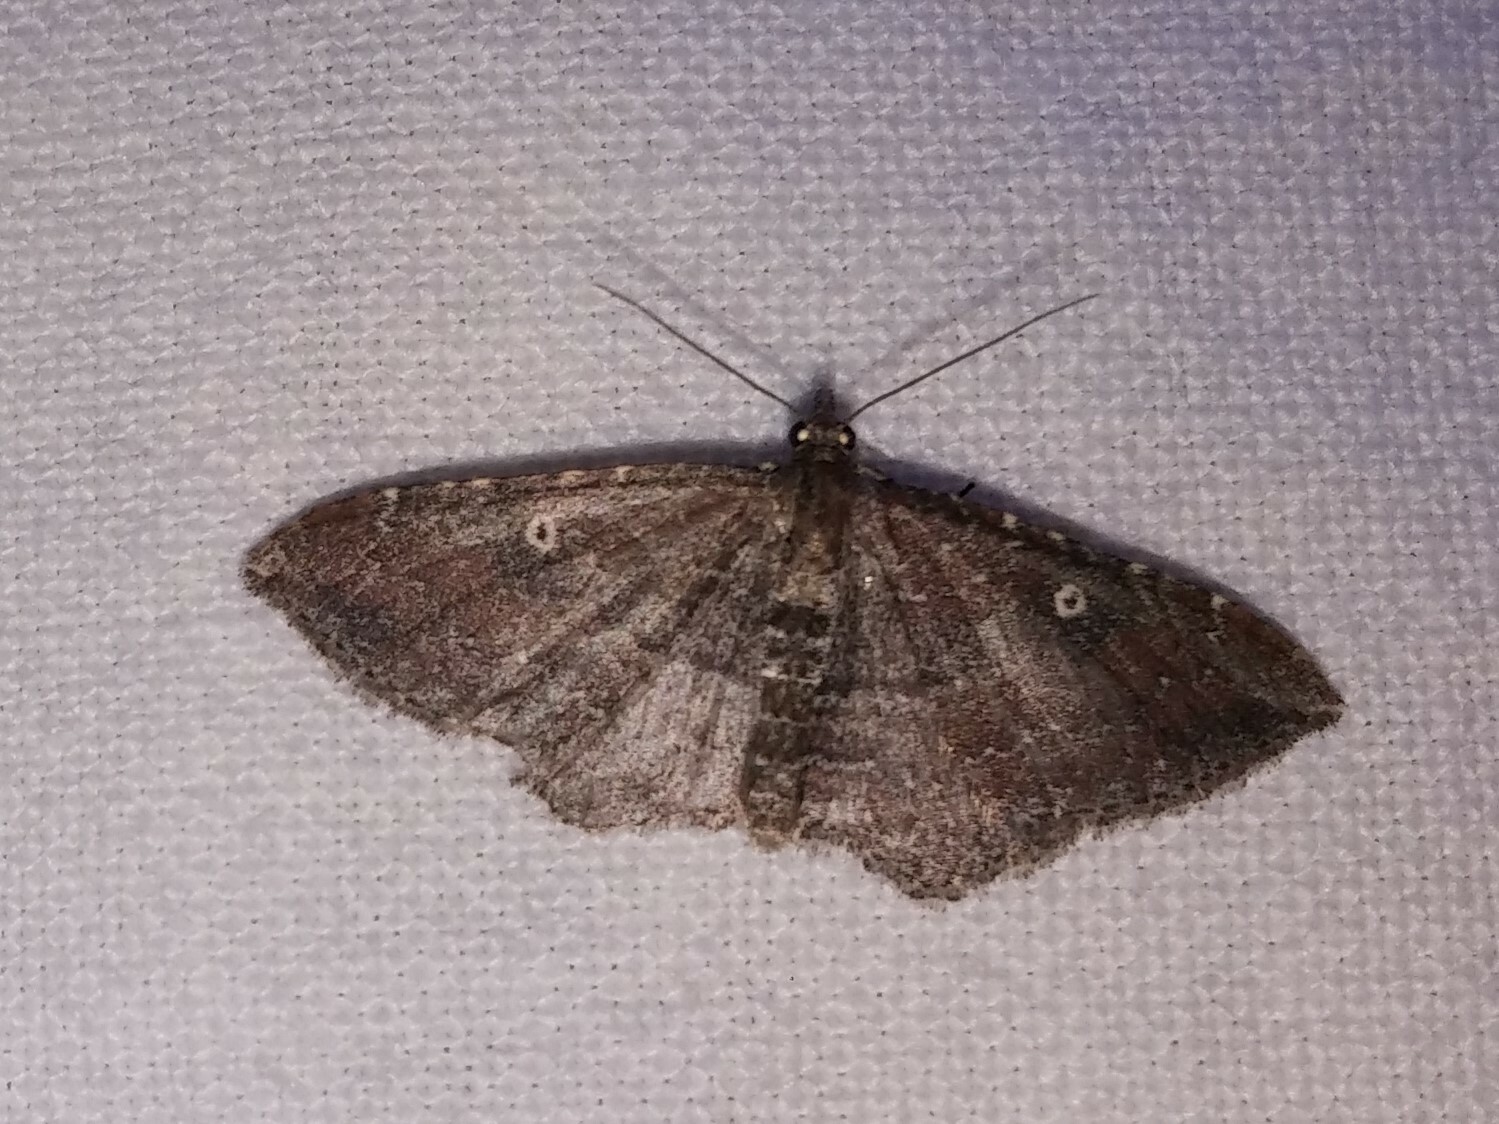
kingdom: Animalia
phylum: Arthropoda
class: Insecta
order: Lepidoptera
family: Geometridae
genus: Orthonama
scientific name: Orthonama obstipata
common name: The gem
